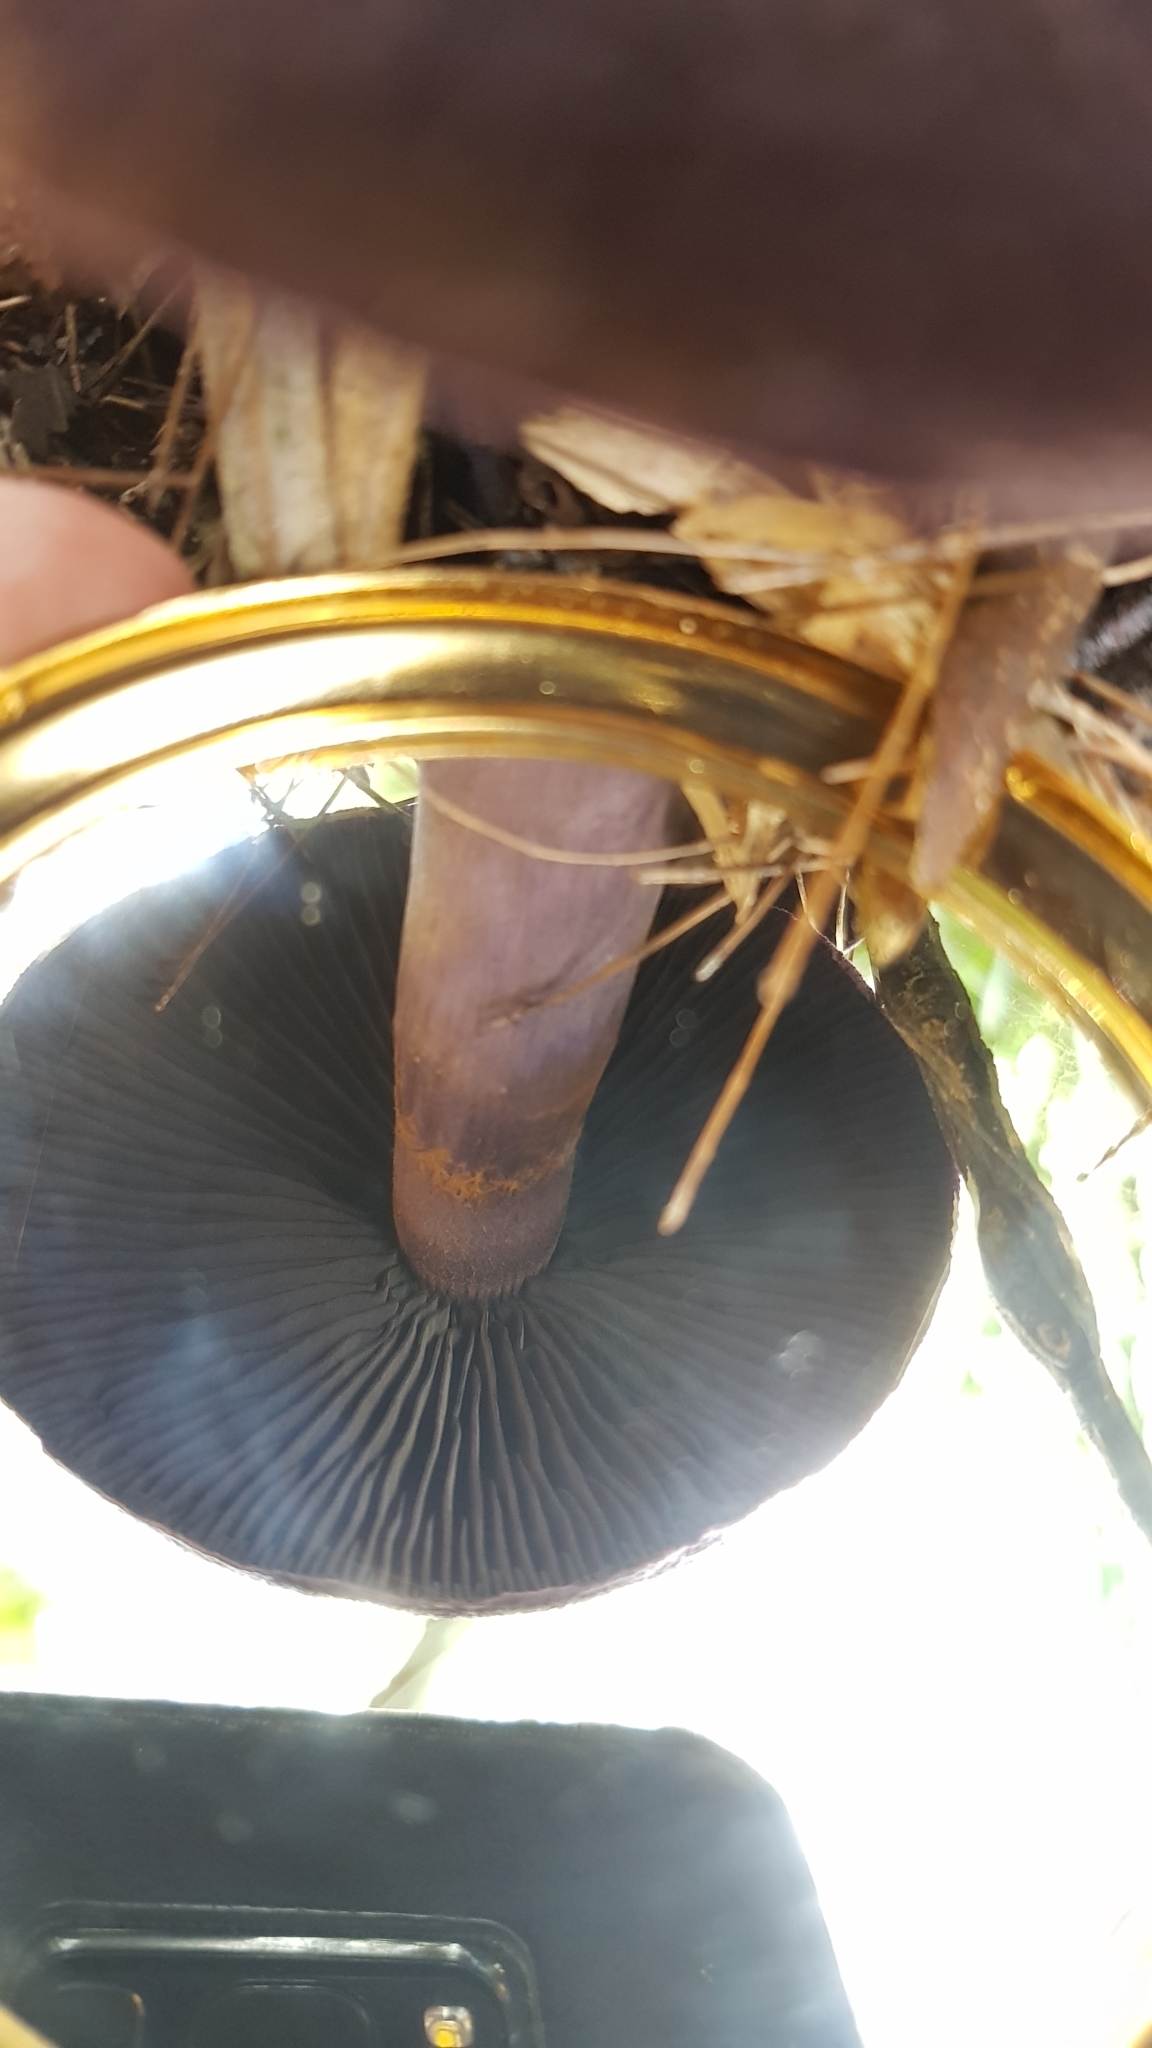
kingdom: Fungi
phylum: Basidiomycota
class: Agaricomycetes
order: Agaricales
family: Cortinariaceae
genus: Cortinarius
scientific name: Cortinarius kioloensis
